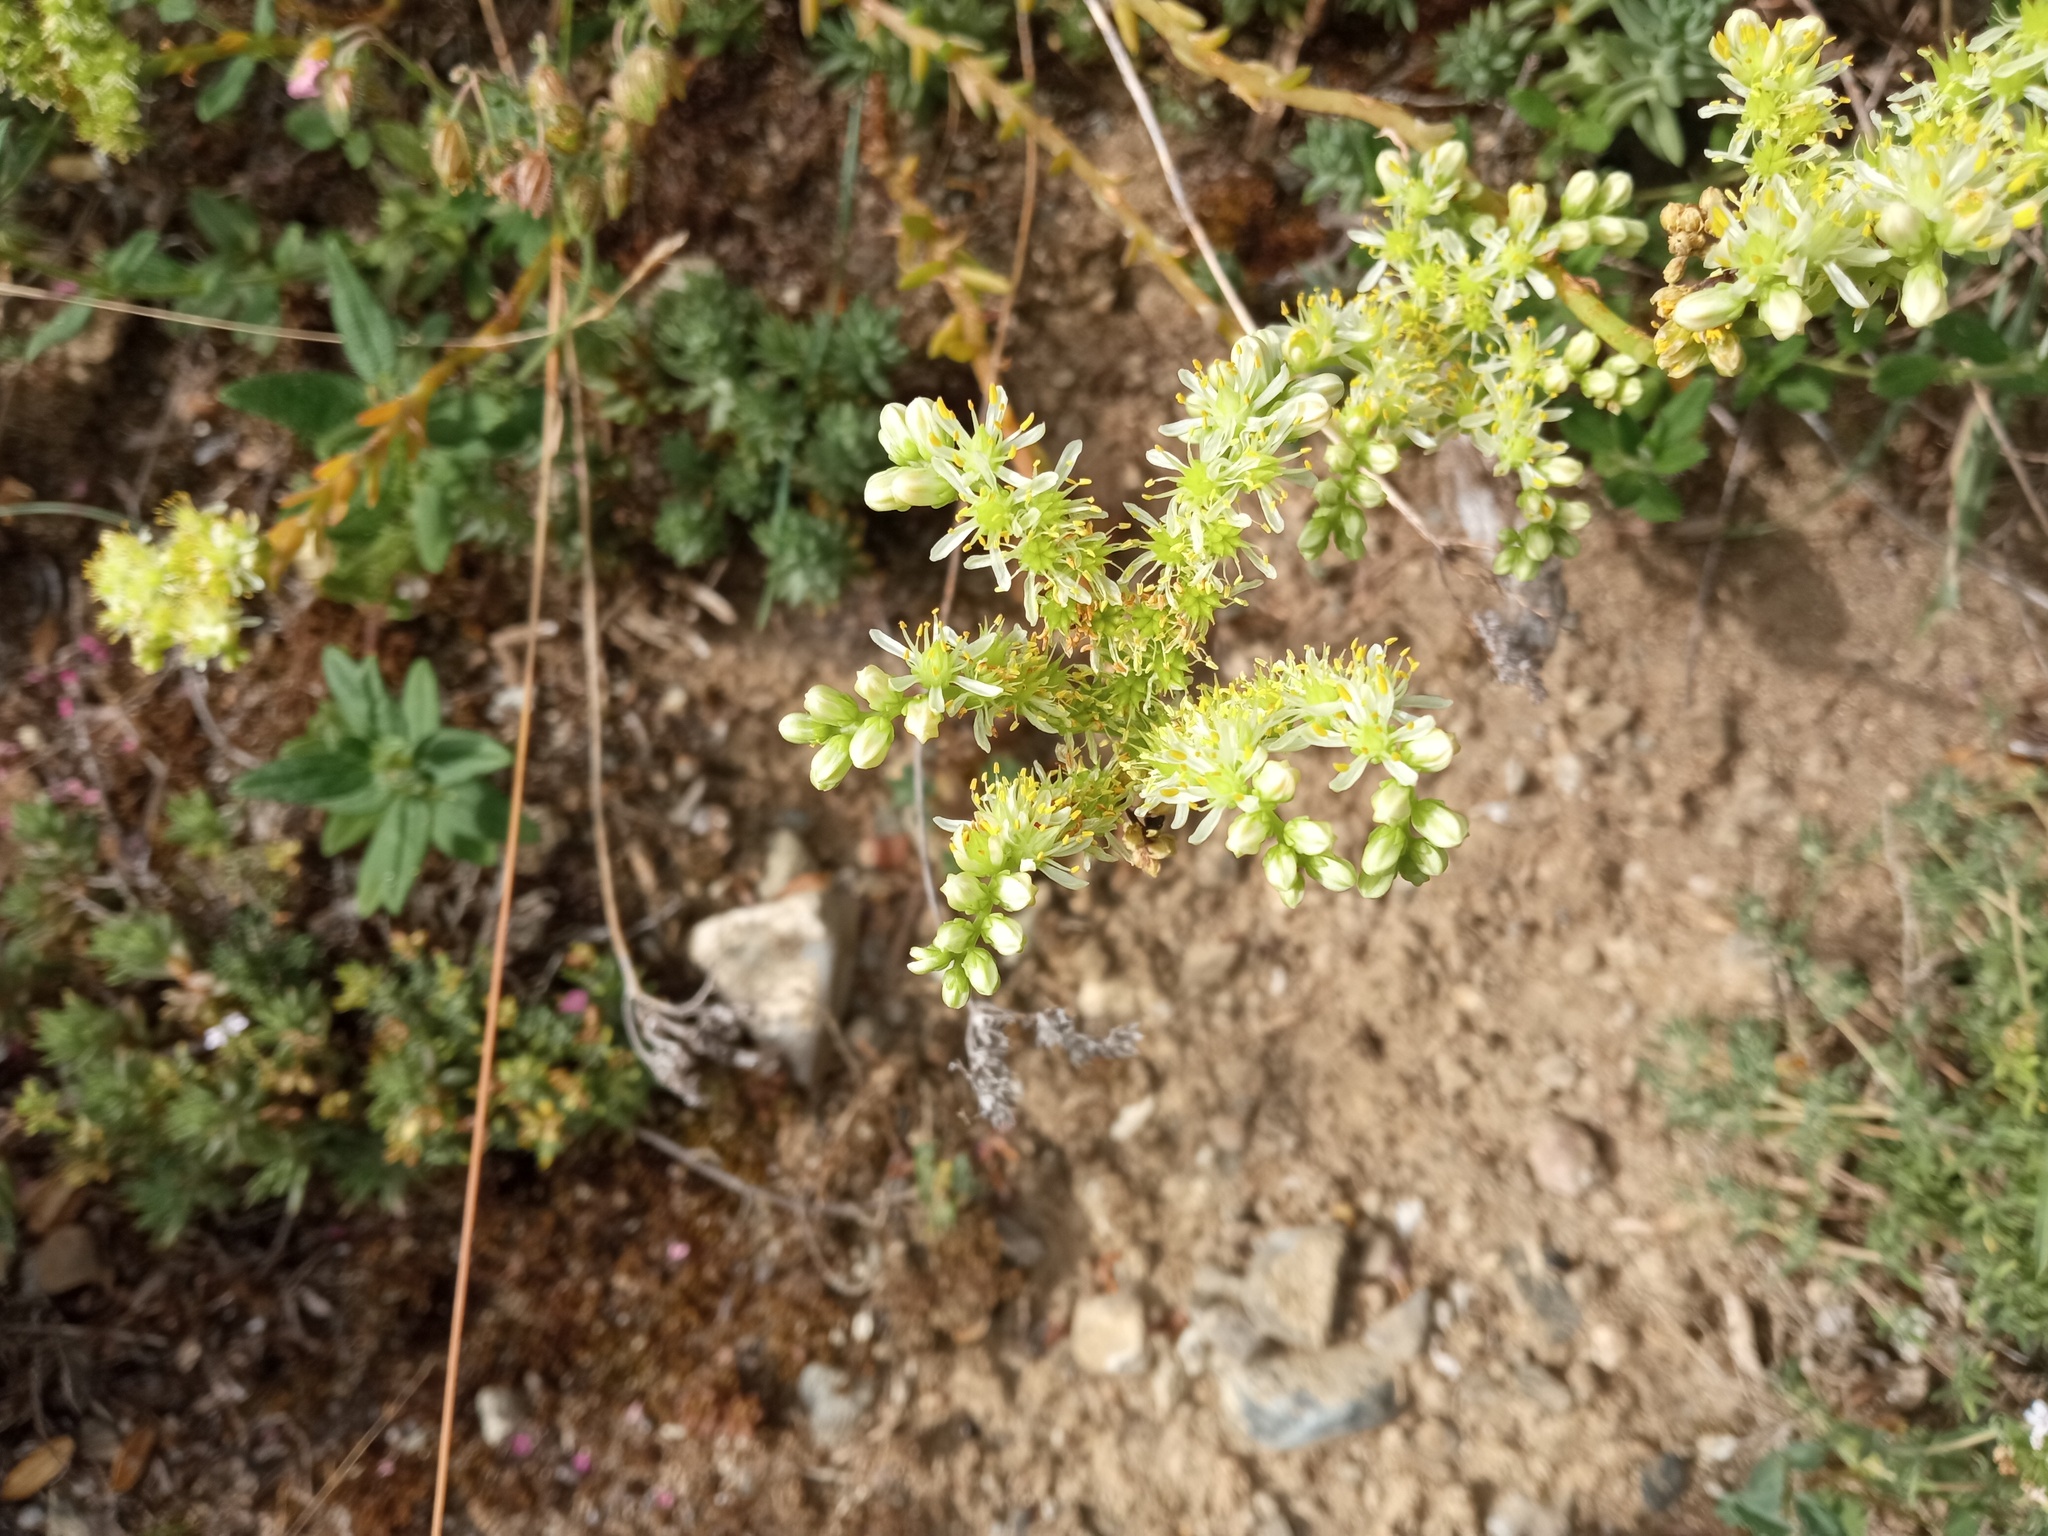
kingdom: Plantae
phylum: Tracheophyta
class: Magnoliopsida
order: Saxifragales
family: Crassulaceae
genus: Petrosedum
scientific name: Petrosedum sediforme
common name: Pale stonecrop
